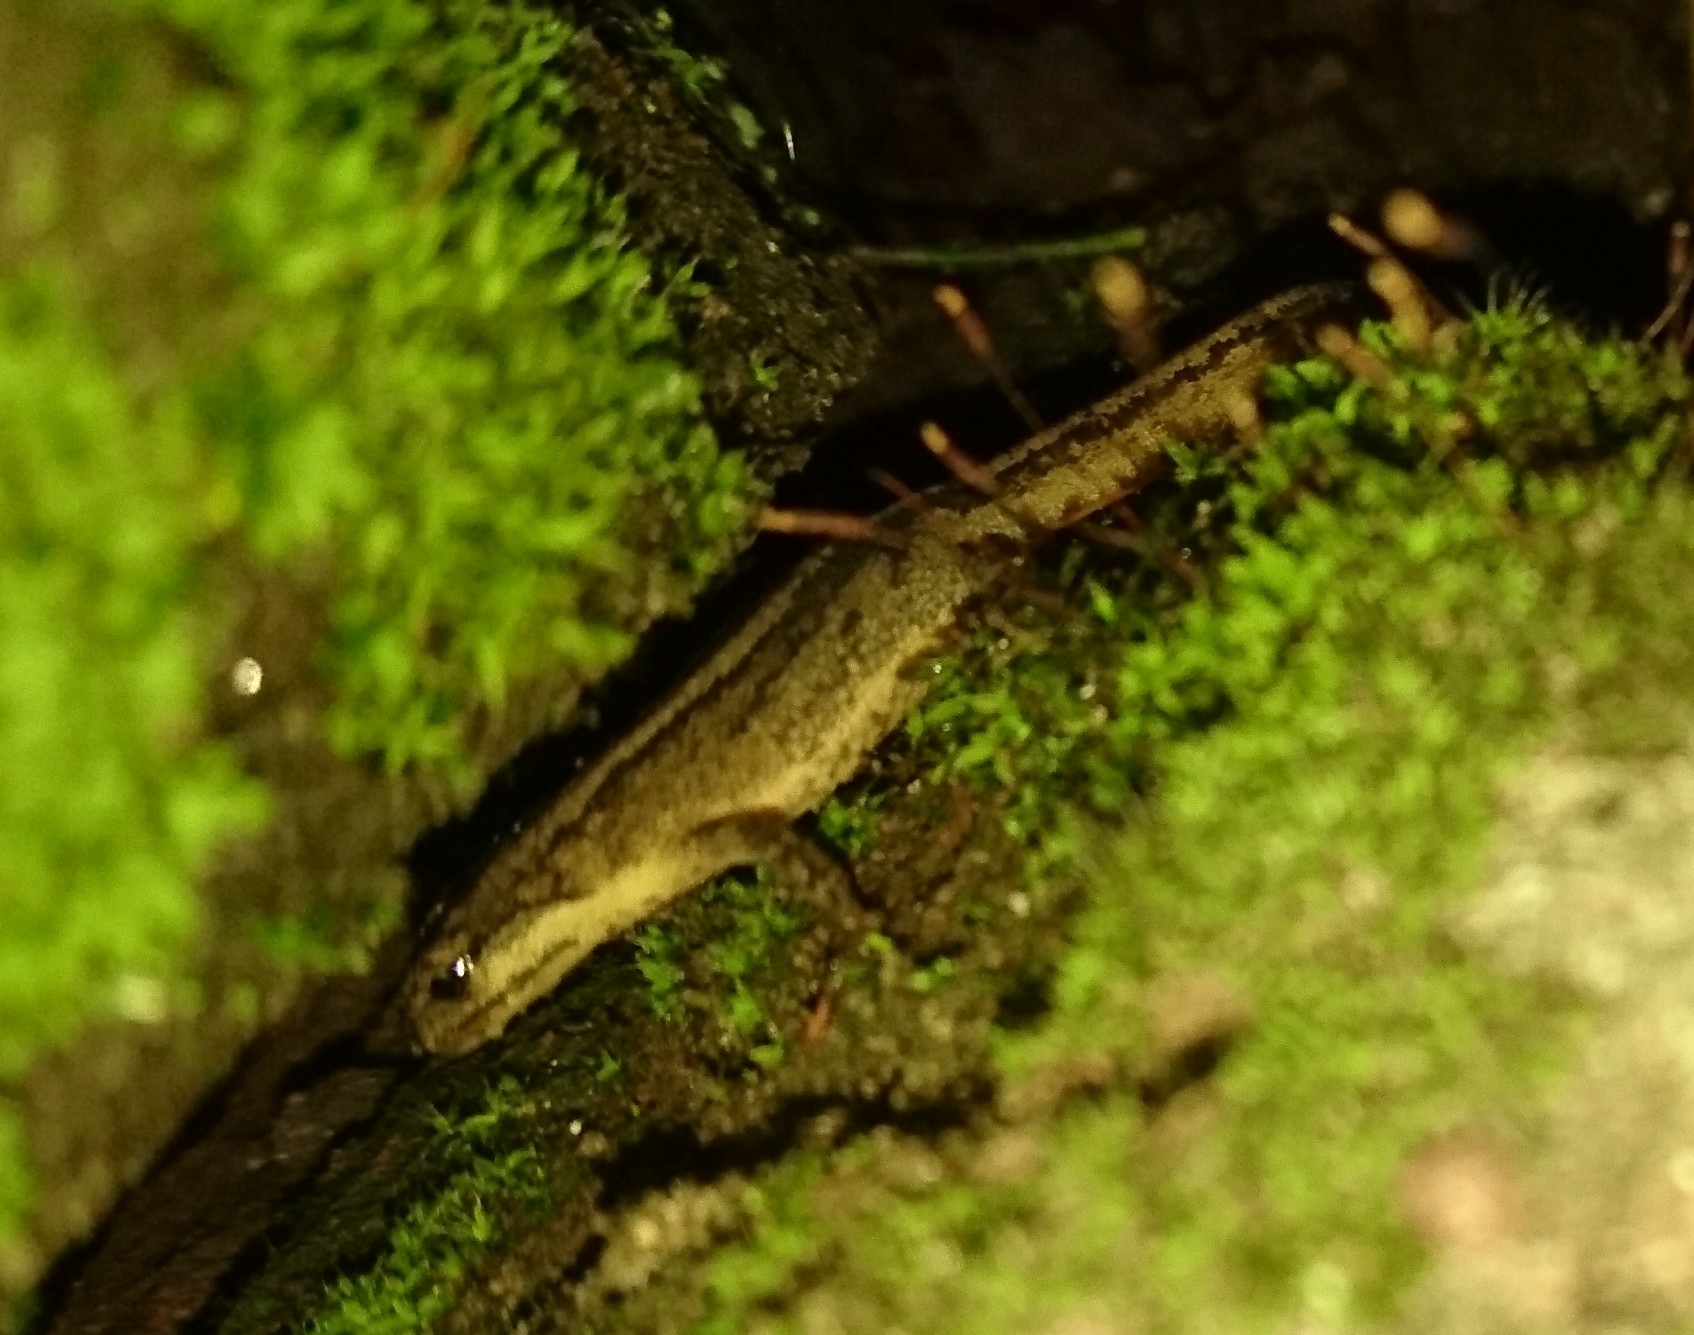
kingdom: Animalia
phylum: Chordata
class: Amphibia
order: Caudata
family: Salamandridae
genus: Lissotriton
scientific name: Lissotriton vulgaris
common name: Smooth newt
